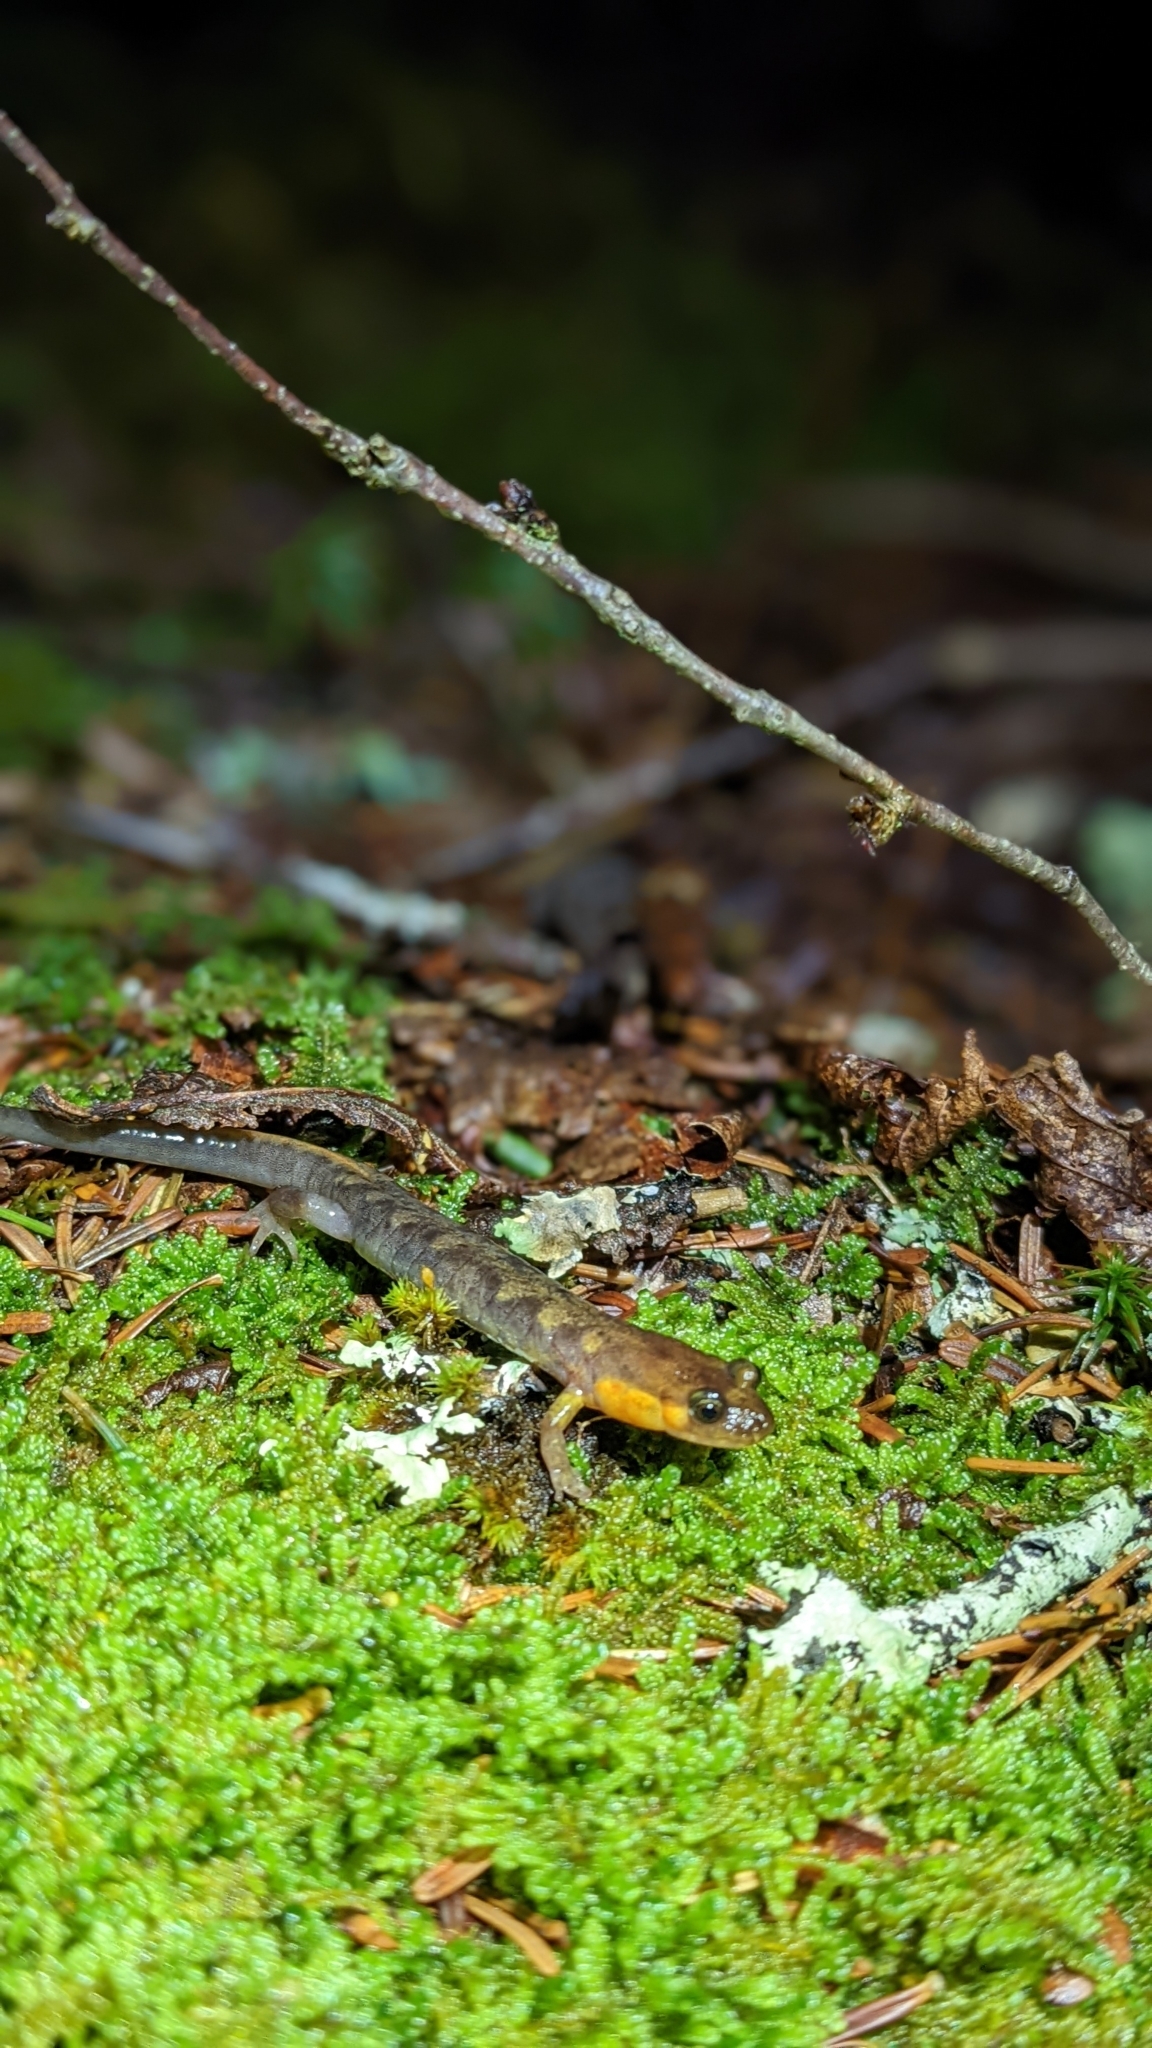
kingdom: Animalia
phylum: Chordata
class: Amphibia
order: Caudata
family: Plethodontidae
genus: Desmognathus
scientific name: Desmognathus imitator
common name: Imitator salamander
